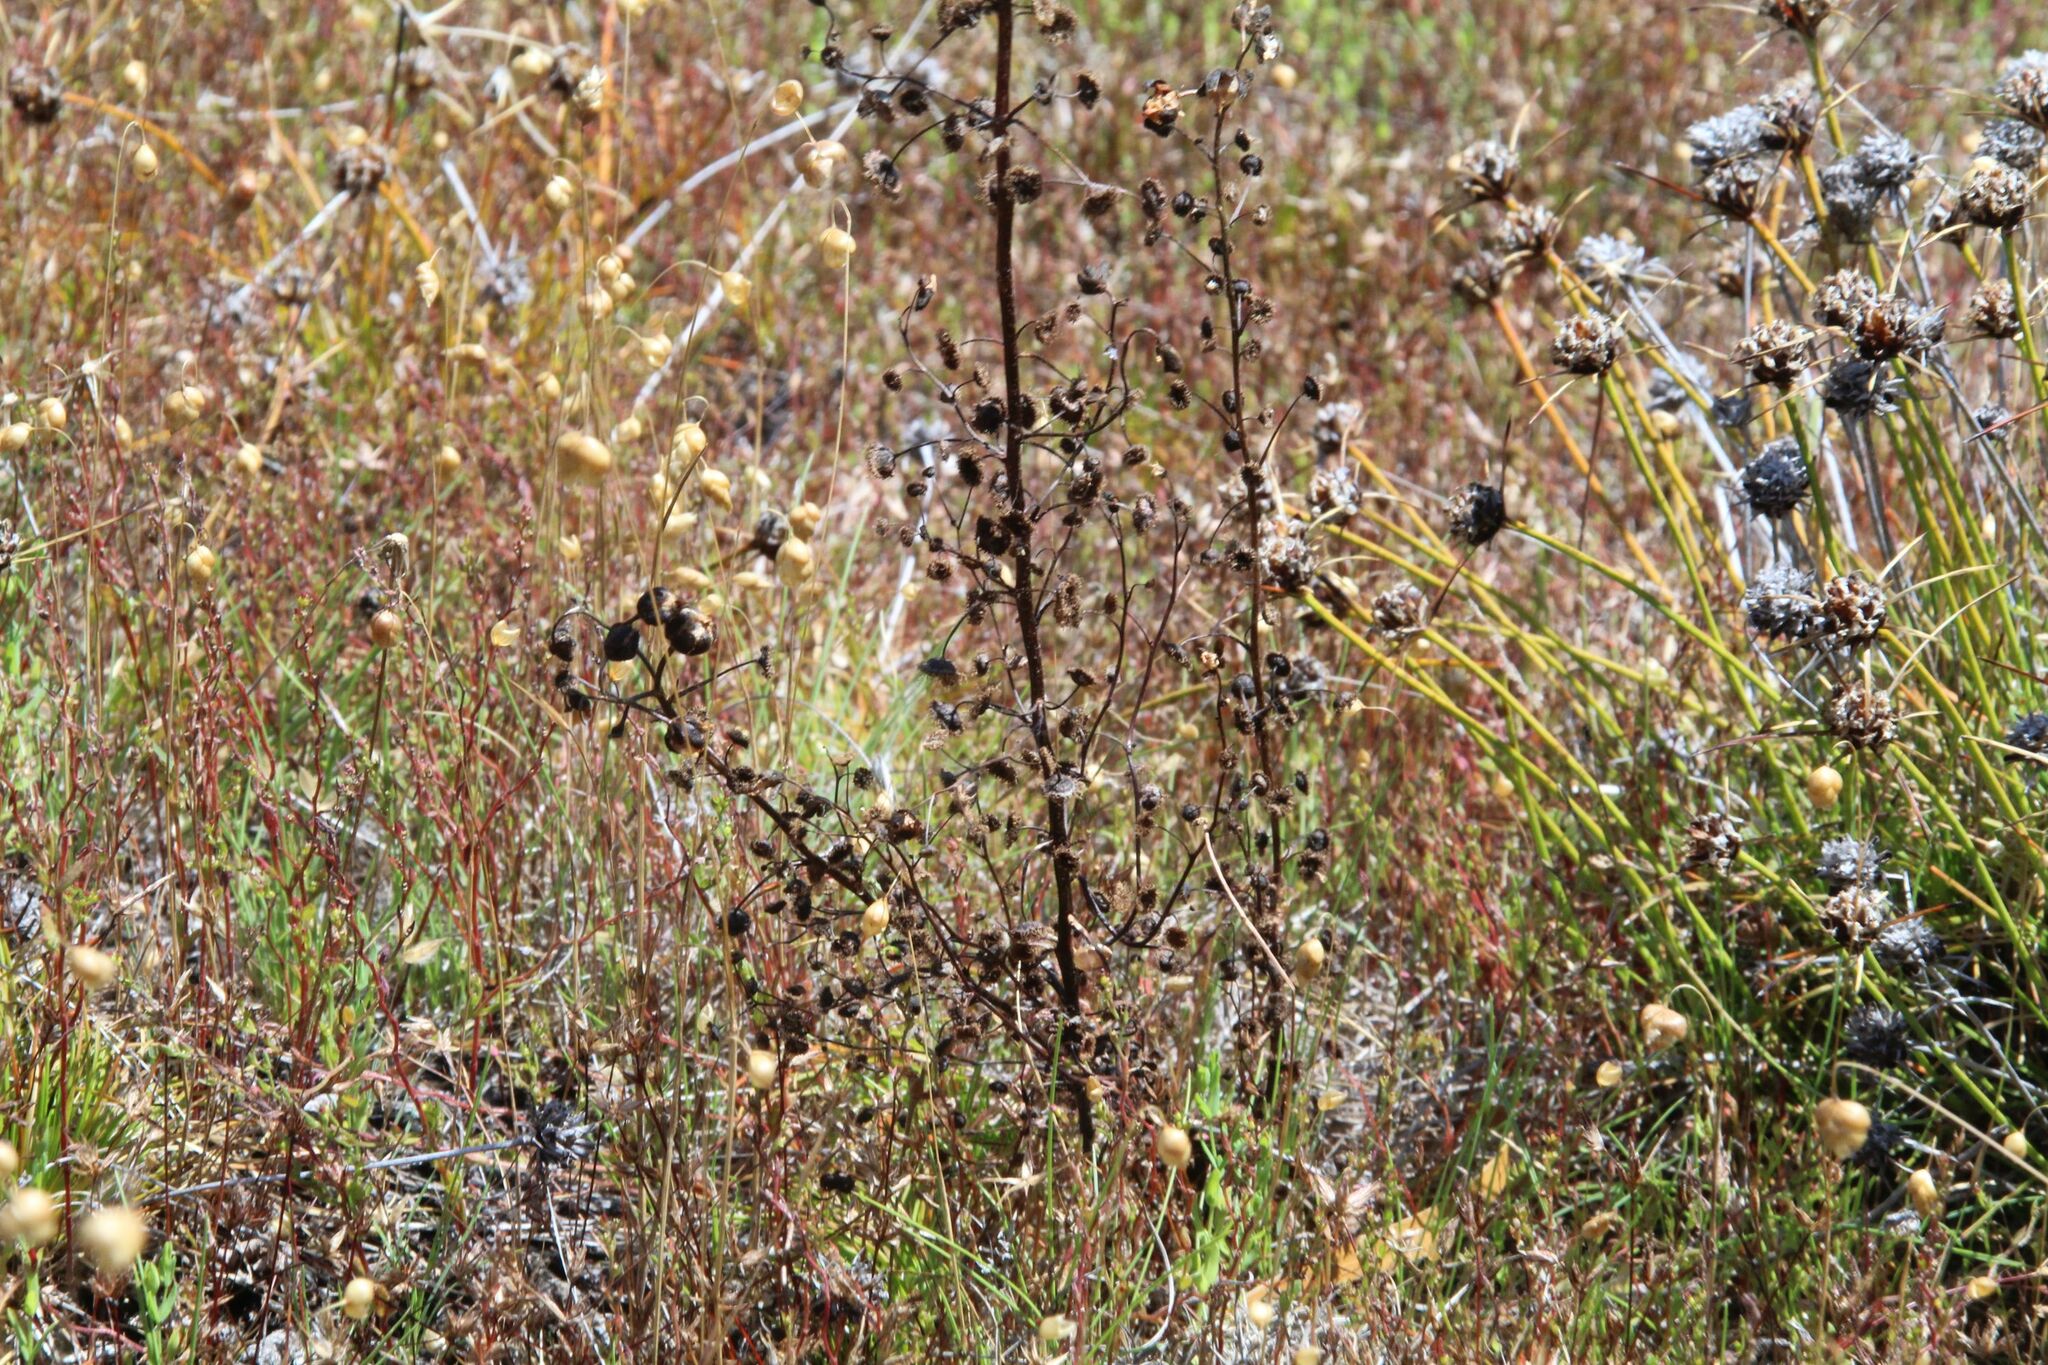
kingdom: Plantae
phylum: Tracheophyta
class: Magnoliopsida
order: Caryophyllales
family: Droseraceae
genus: Drosera
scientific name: Drosera stricticaulis
